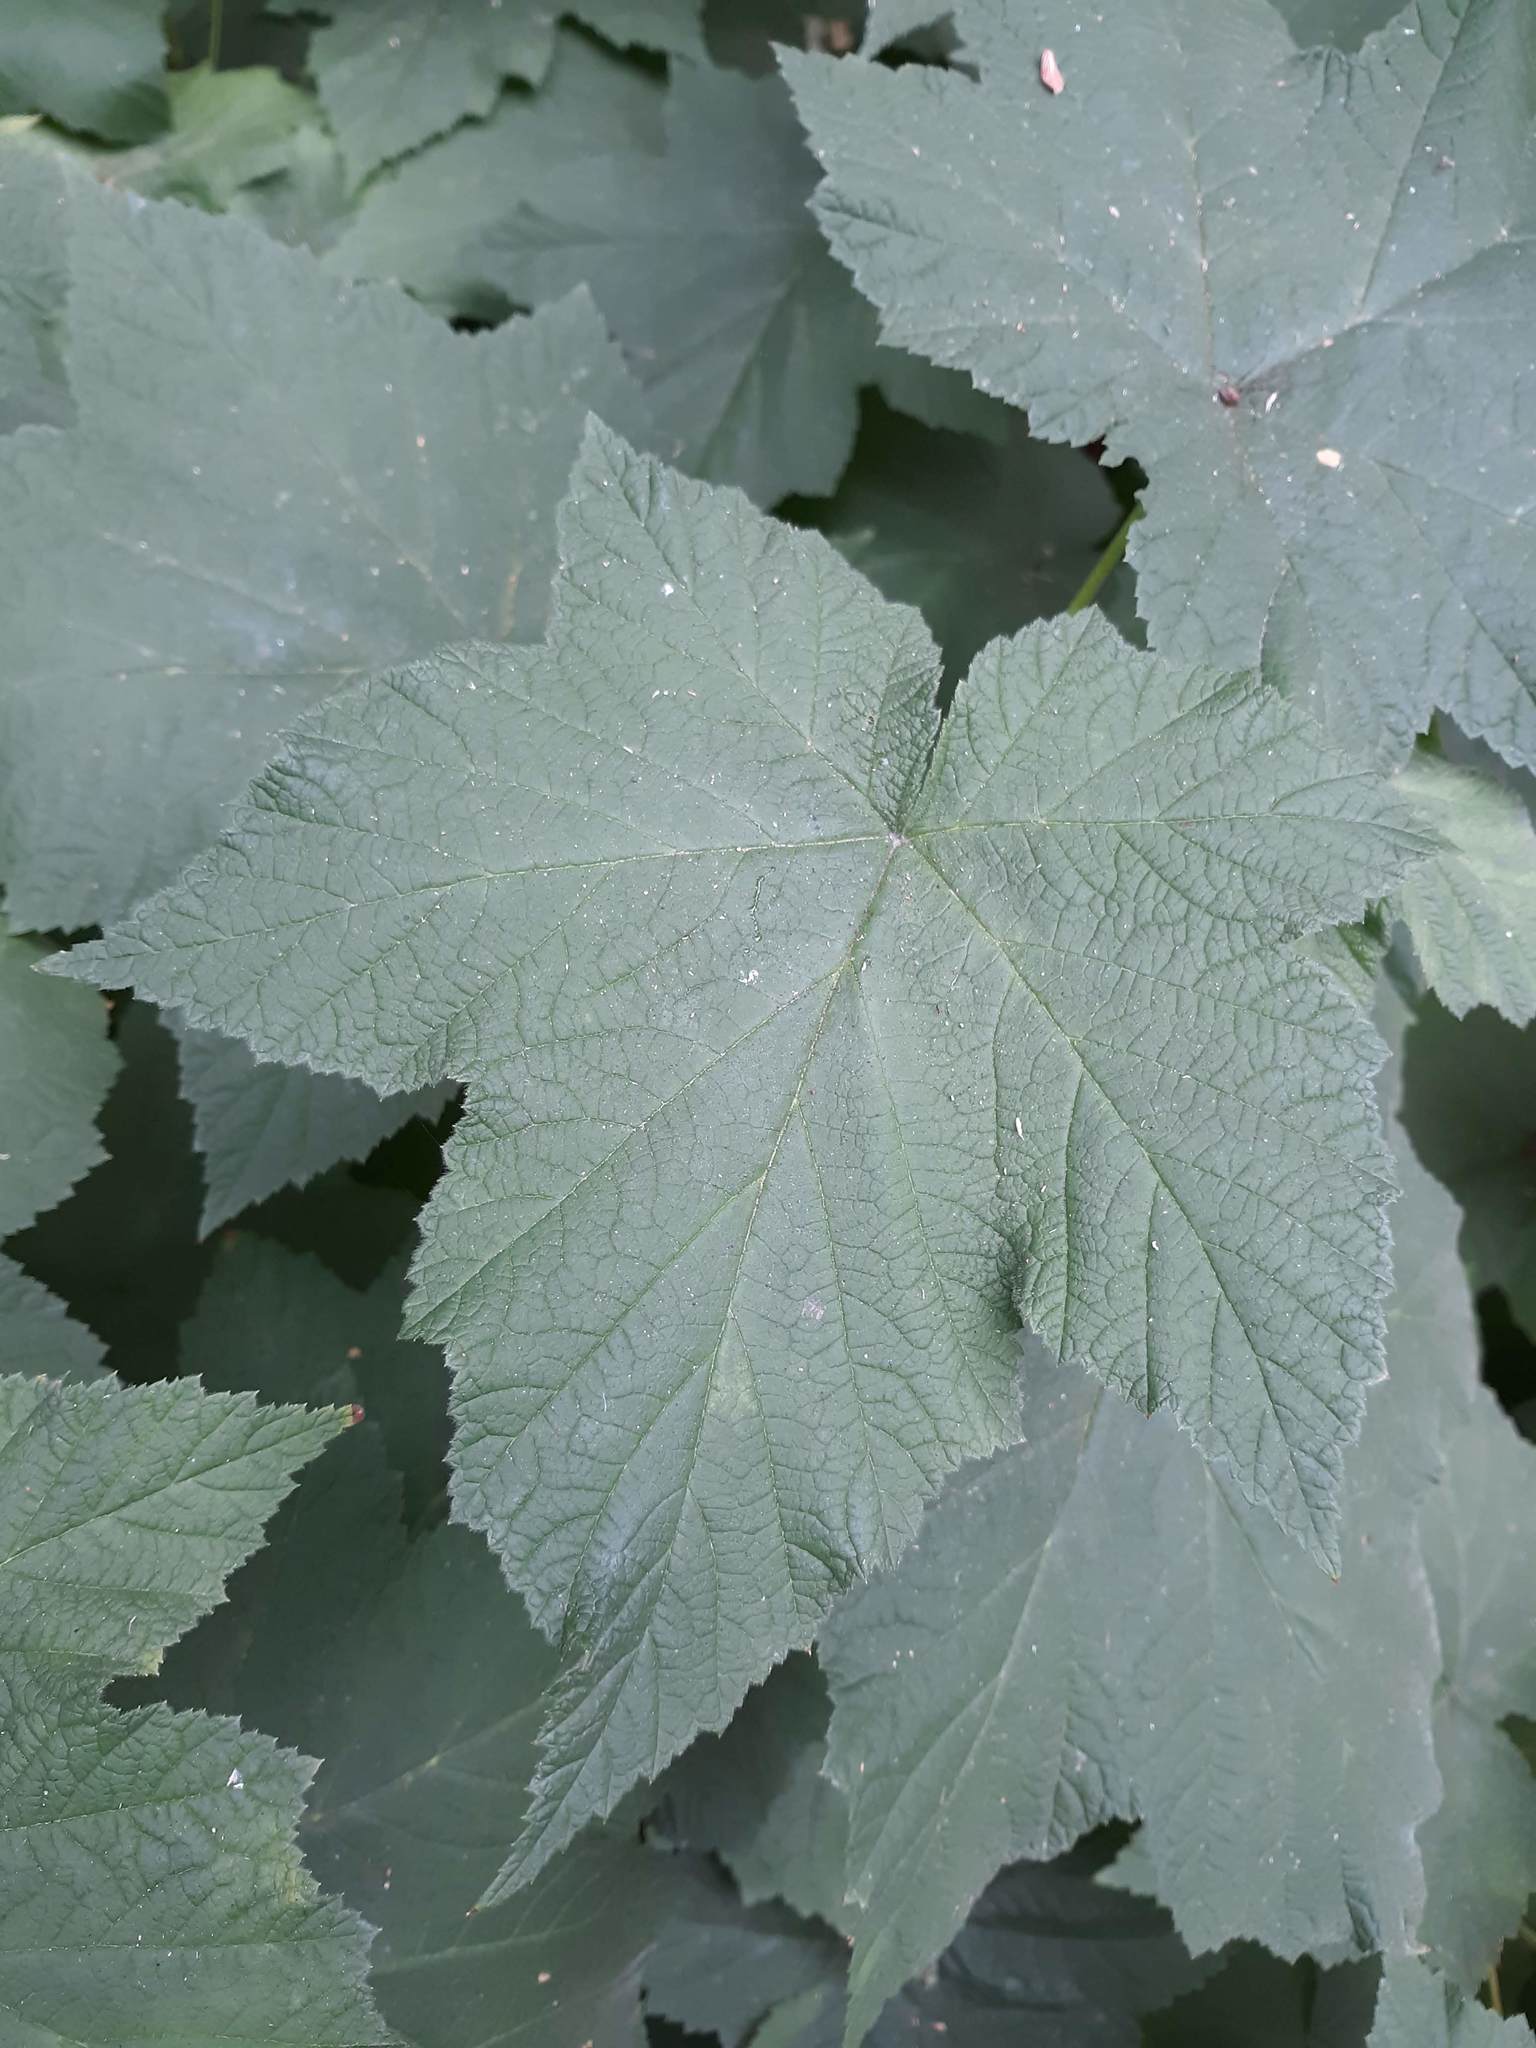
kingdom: Plantae
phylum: Tracheophyta
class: Magnoliopsida
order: Rosales
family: Rosaceae
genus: Rubus
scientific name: Rubus parviflorus
